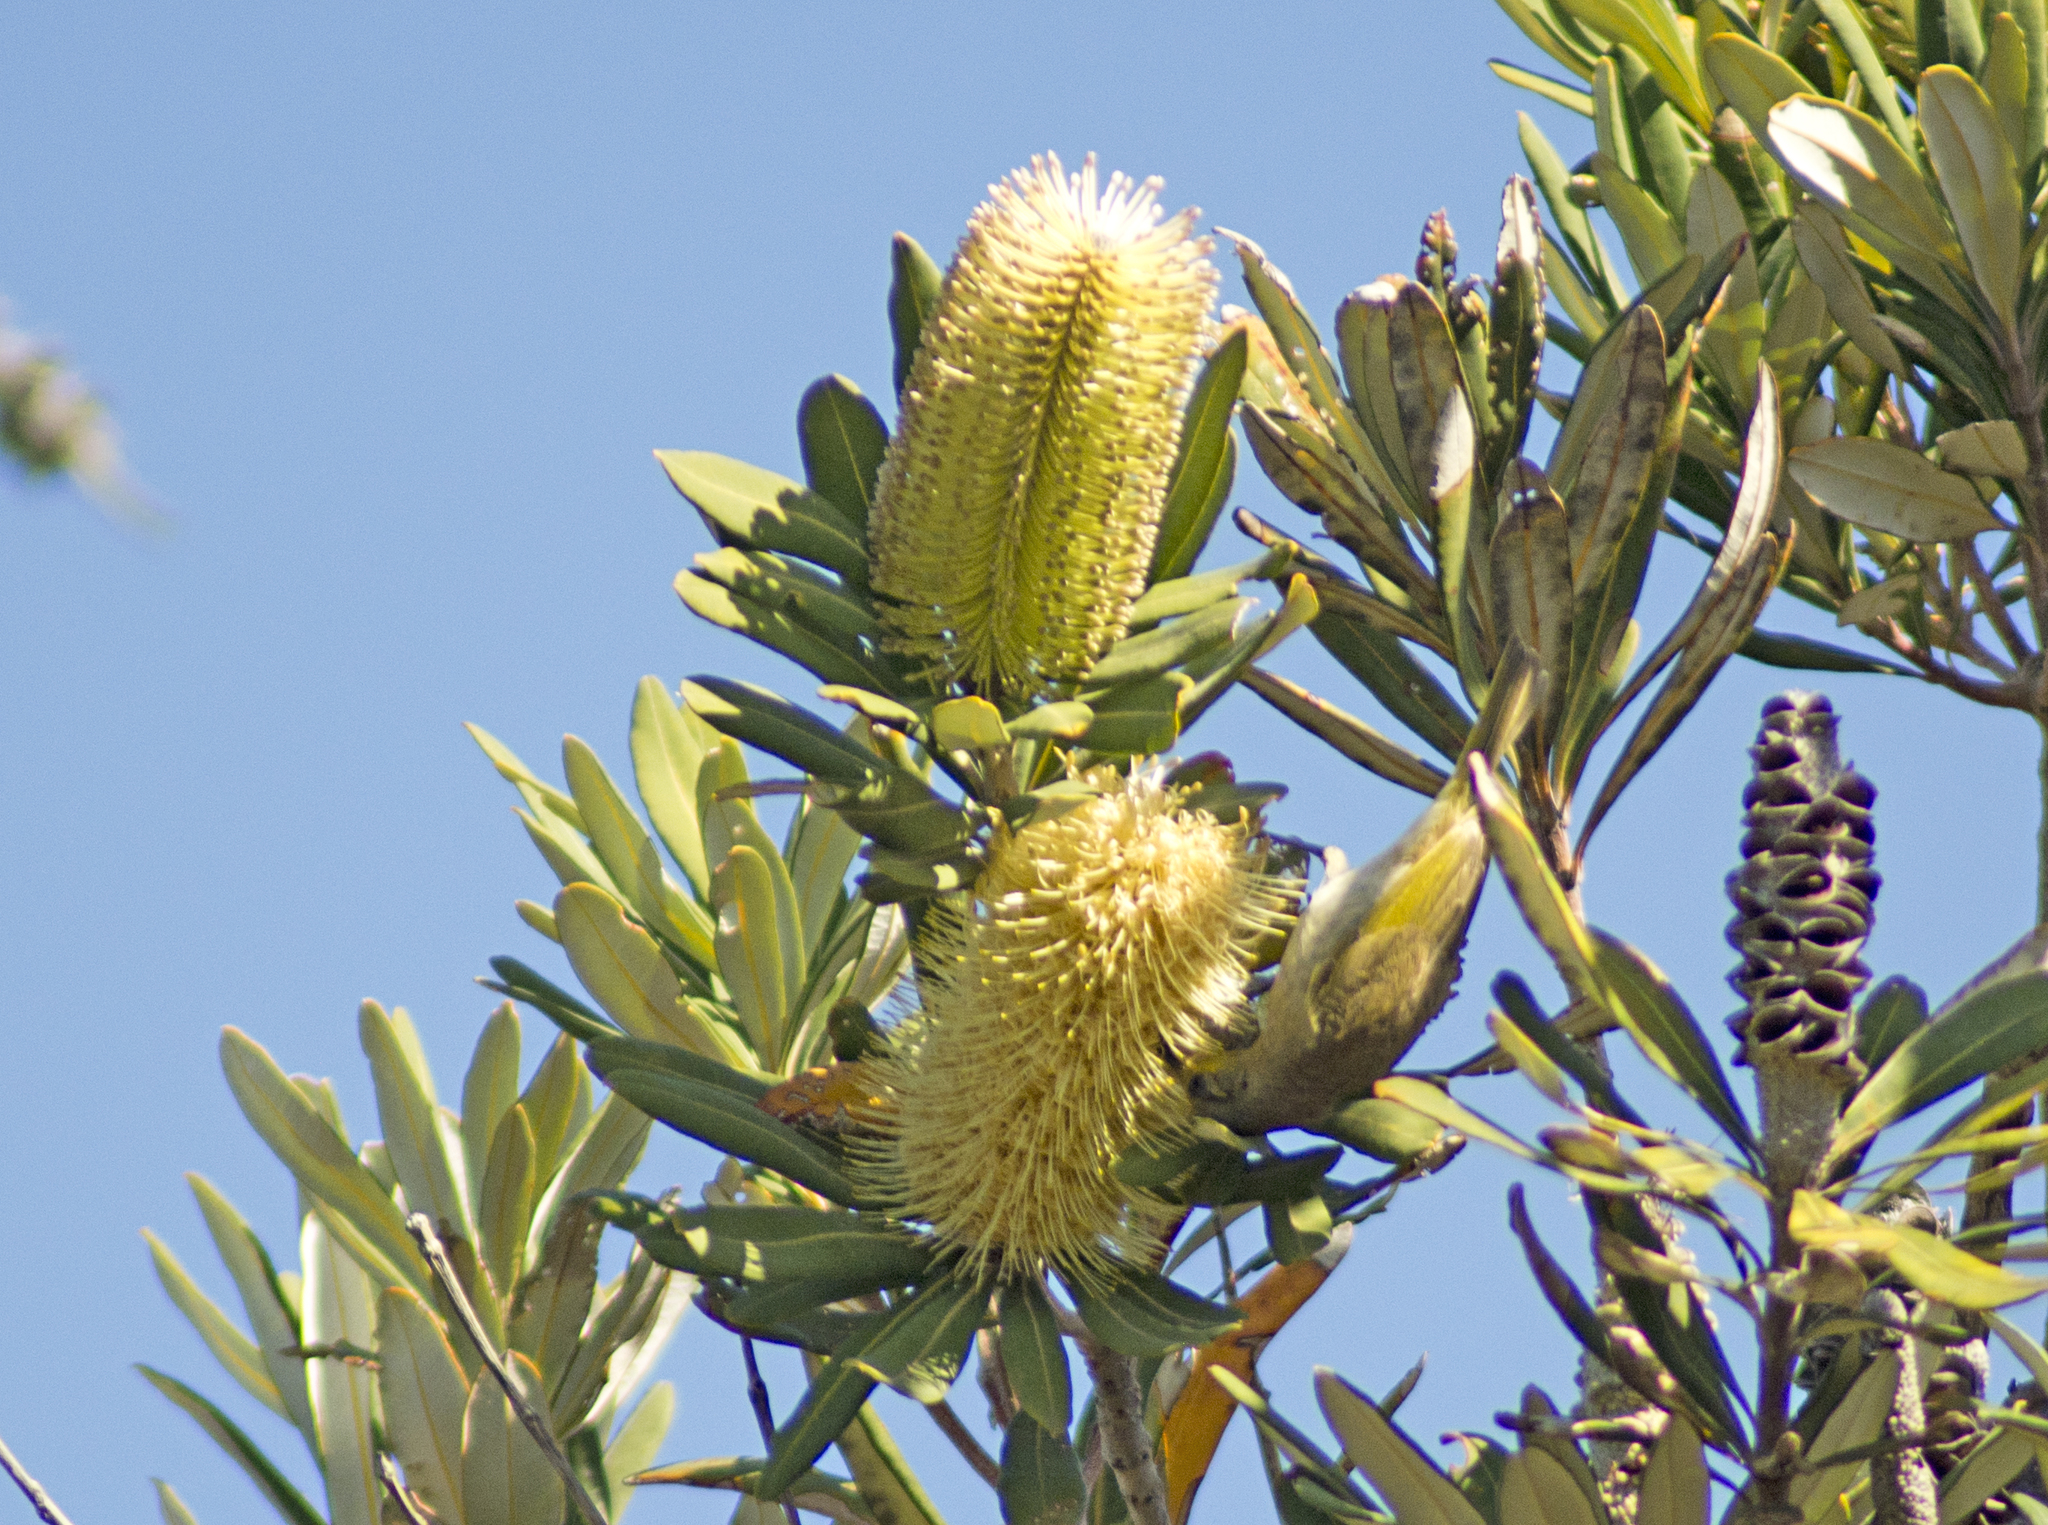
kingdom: Plantae
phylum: Tracheophyta
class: Magnoliopsida
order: Proteales
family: Proteaceae
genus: Banksia
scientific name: Banksia integrifolia
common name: White-honeysuckle
